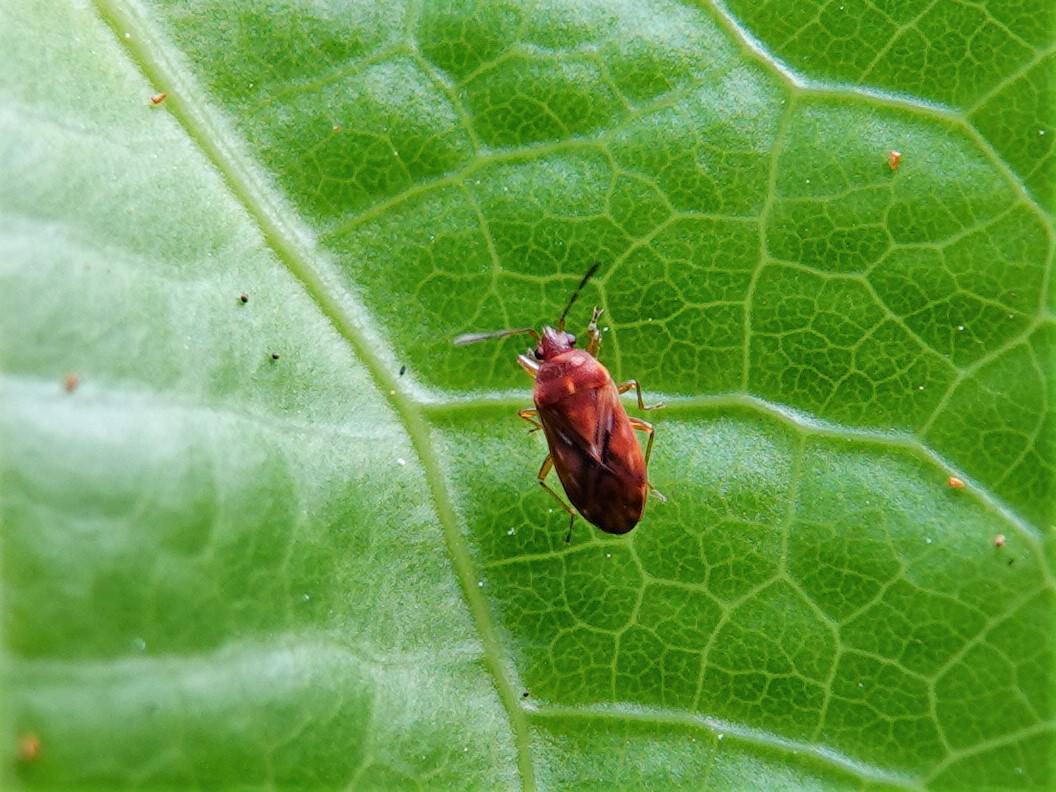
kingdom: Animalia
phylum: Arthropoda
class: Insecta
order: Hemiptera
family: Rhyparochromidae
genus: Targarema
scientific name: Targarema stali
